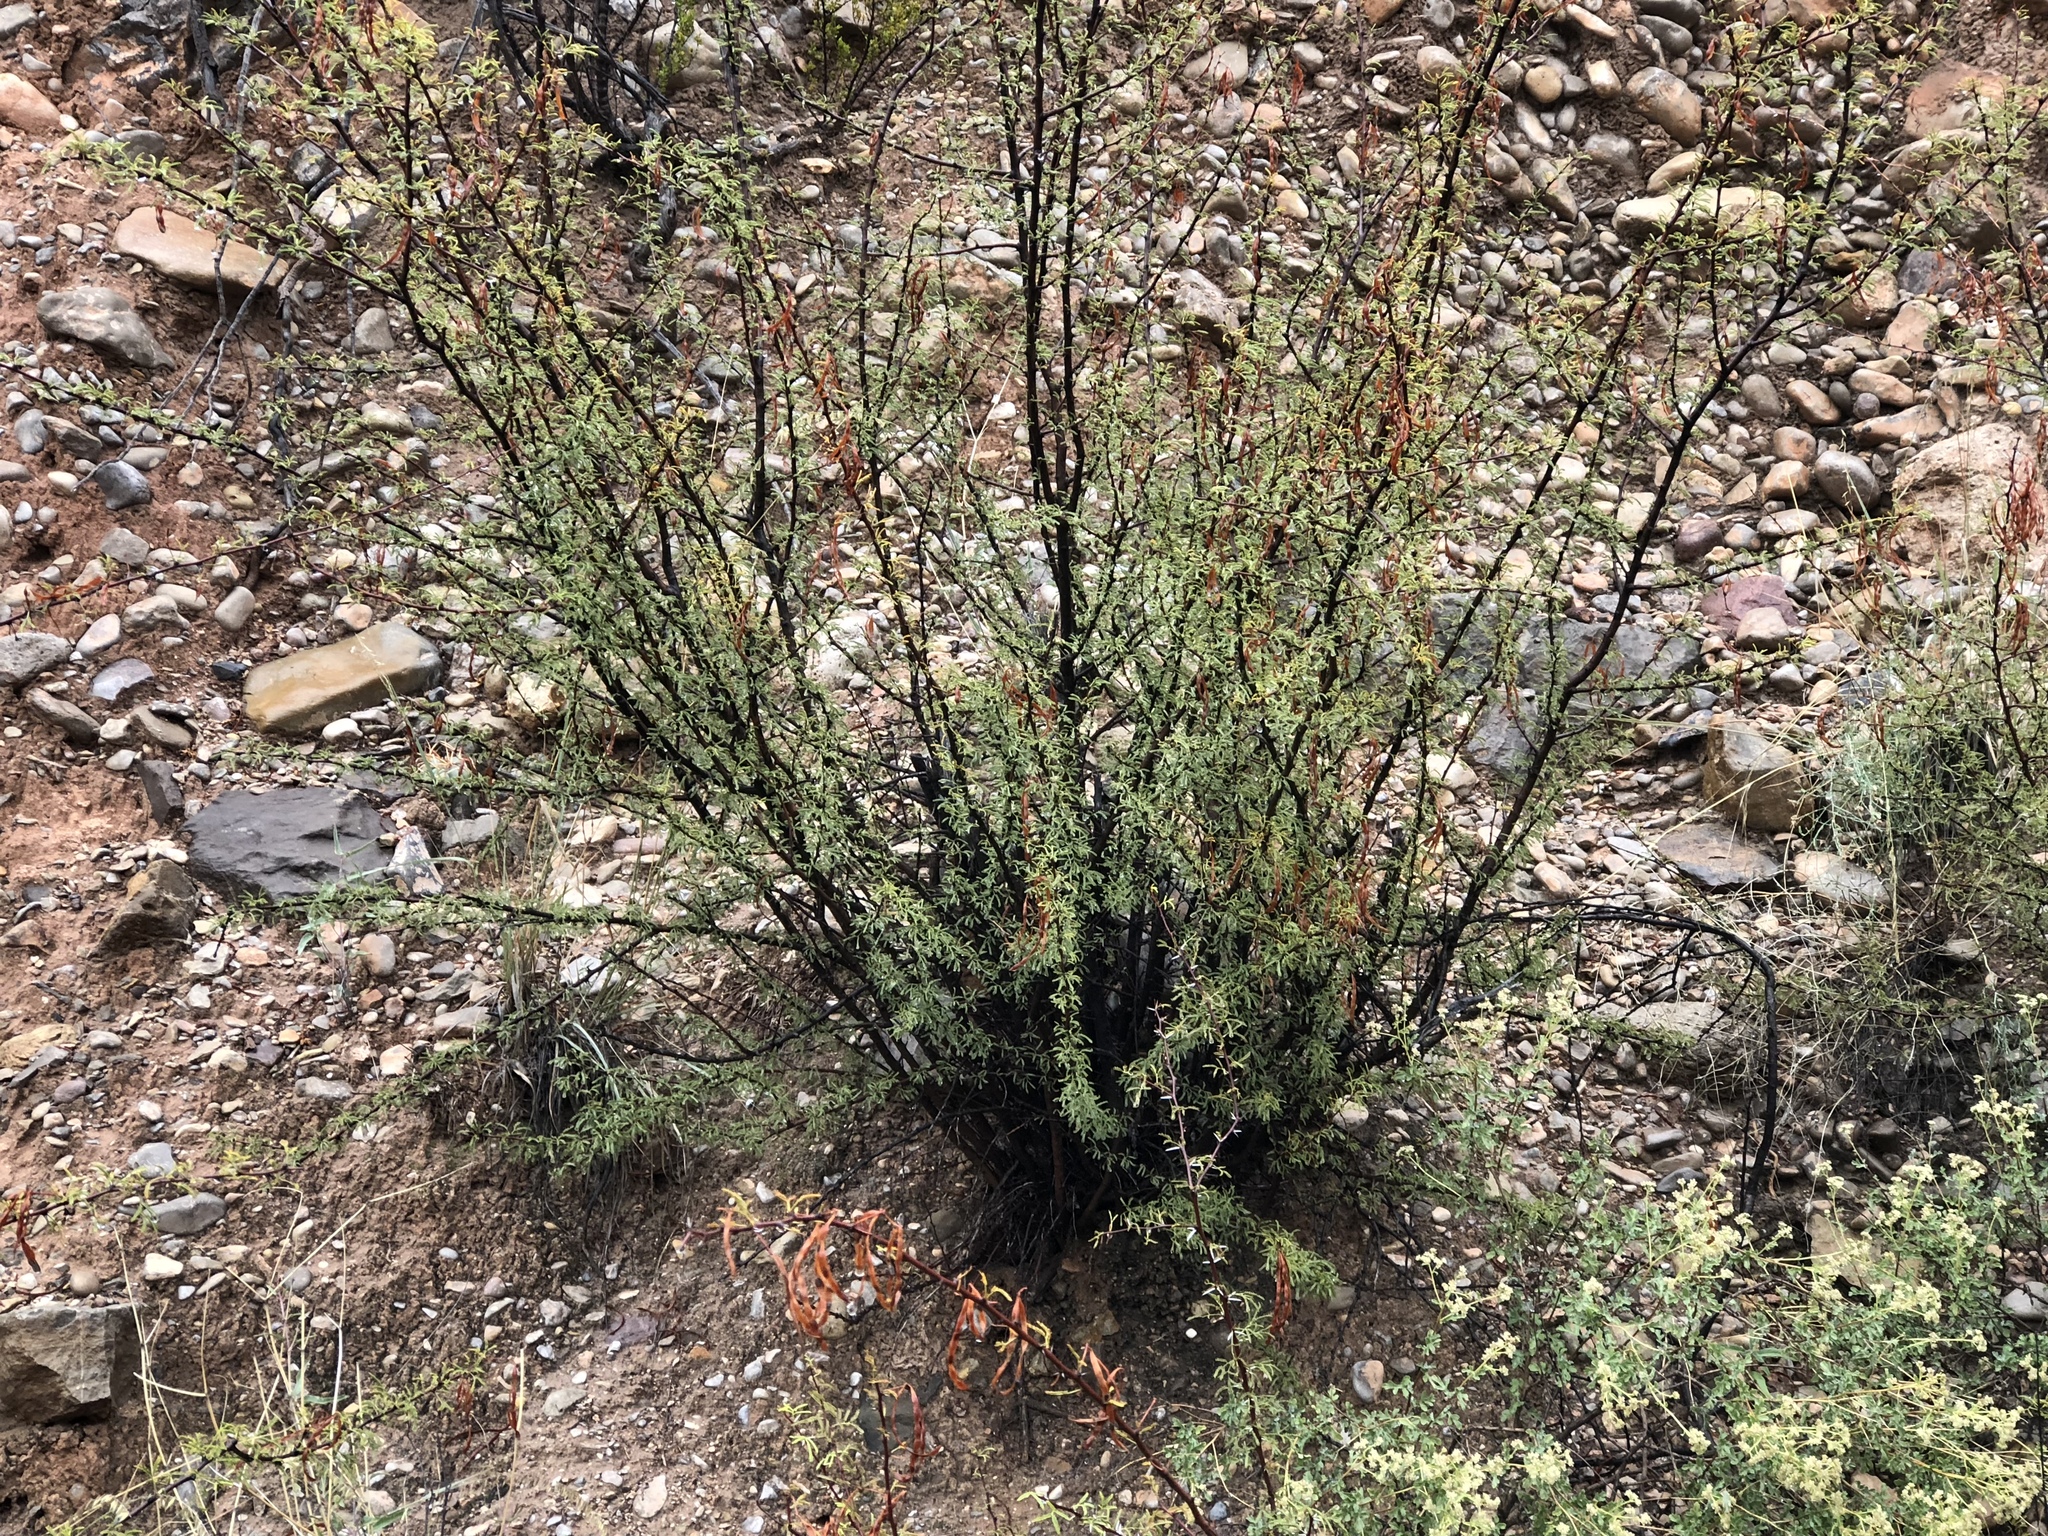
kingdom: Plantae
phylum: Tracheophyta
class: Magnoliopsida
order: Fabales
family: Fabaceae
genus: Vachellia
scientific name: Vachellia vernicosa
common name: Viscid acacia
